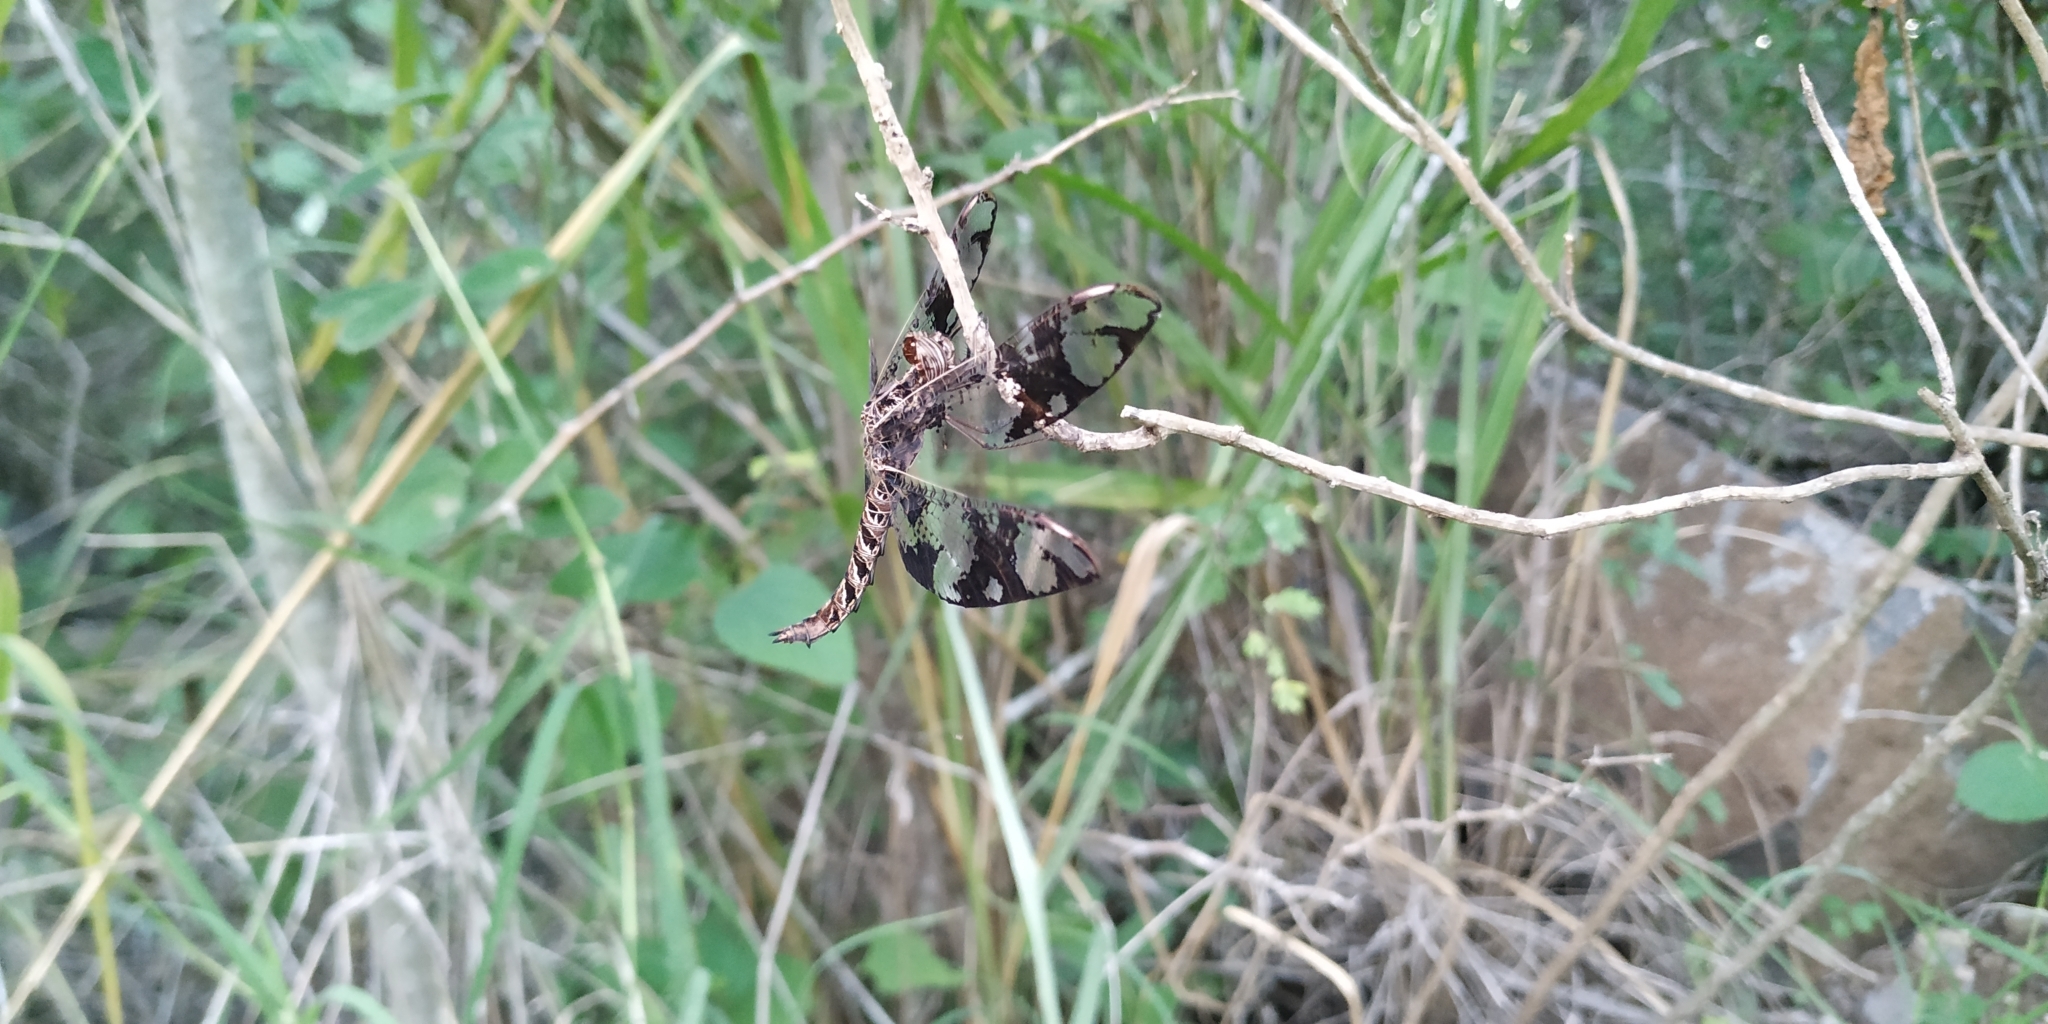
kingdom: Animalia
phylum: Arthropoda
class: Insecta
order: Odonata
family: Libellulidae
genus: Pseudoleon
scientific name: Pseudoleon superbus
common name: Filigree skimmer
